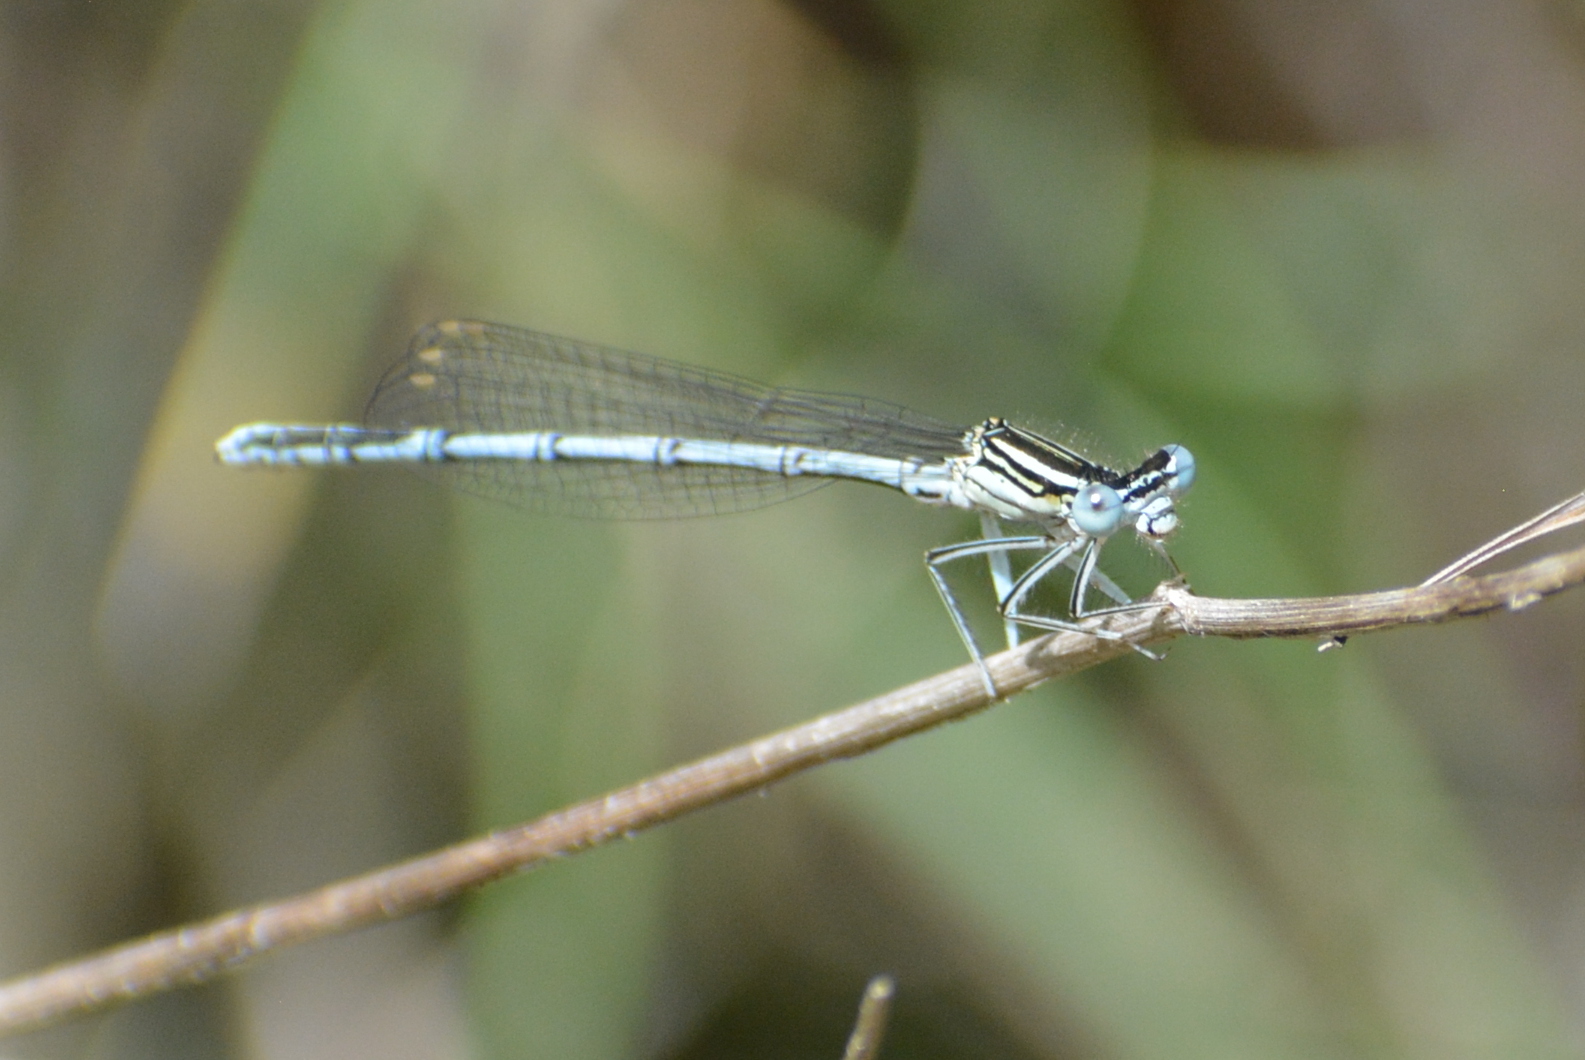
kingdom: Animalia
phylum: Arthropoda
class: Insecta
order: Odonata
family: Platycnemididae
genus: Platycnemis
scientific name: Platycnemis pennipes
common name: White-legged damselfly
